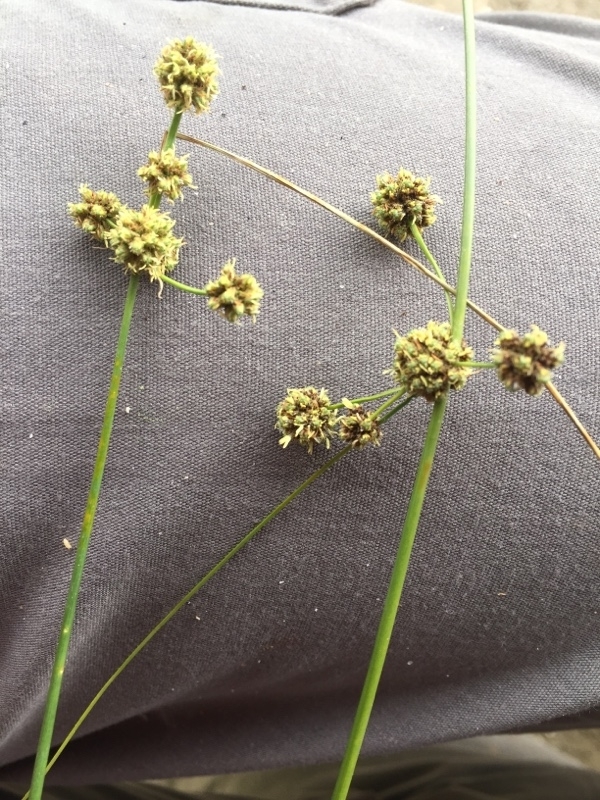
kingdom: Plantae
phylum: Tracheophyta
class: Liliopsida
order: Poales
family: Cyperaceae
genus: Scirpoides
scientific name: Scirpoides holoschoenus
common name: Round-headed club-rush
